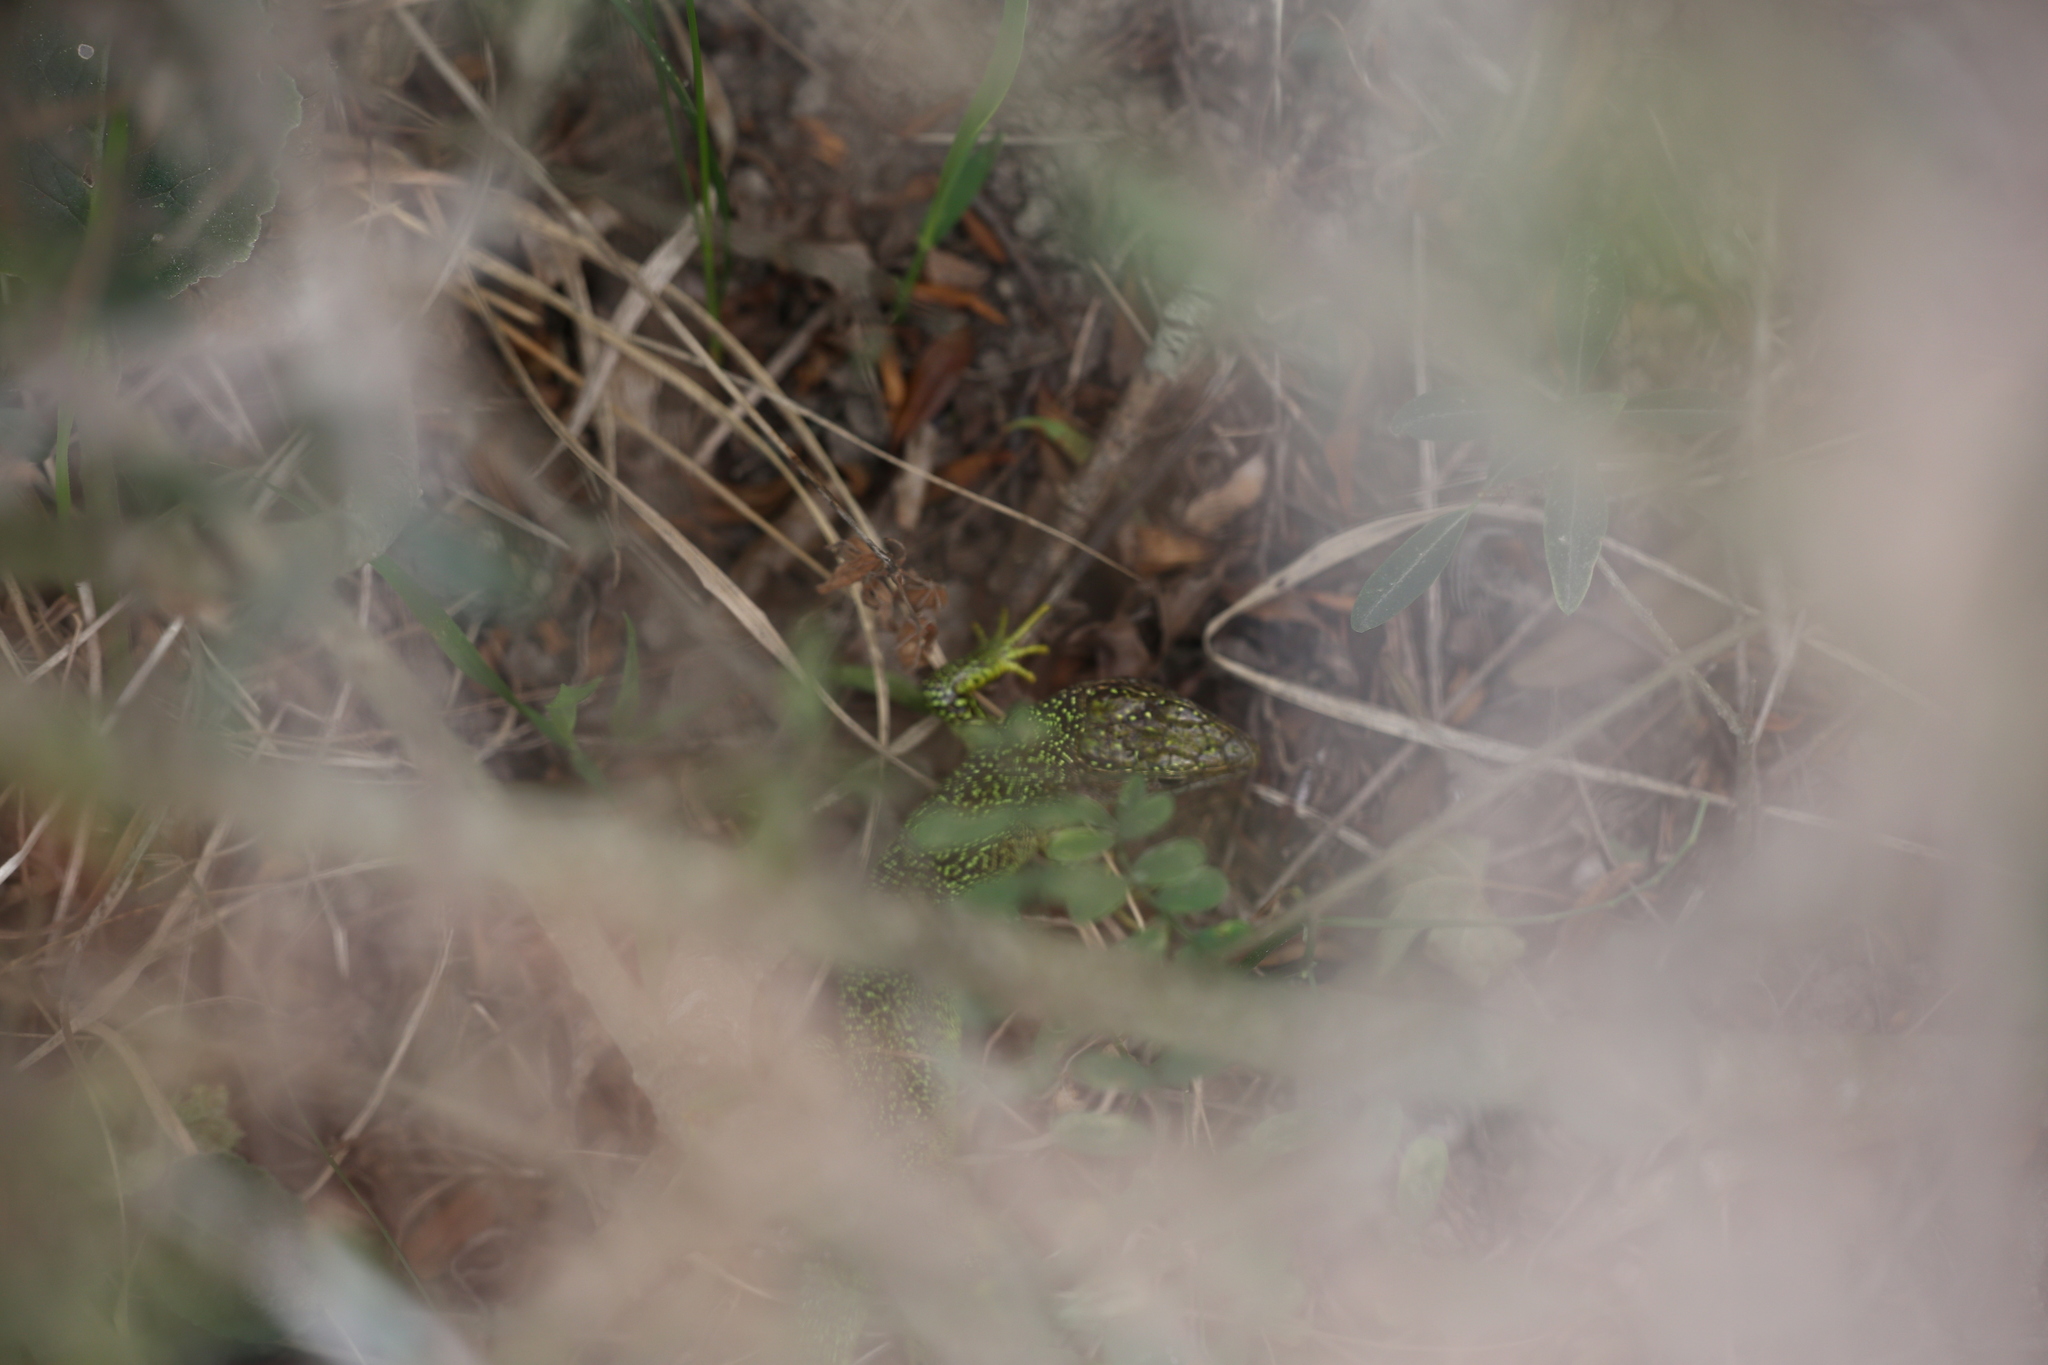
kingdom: Animalia
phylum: Chordata
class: Squamata
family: Lacertidae
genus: Lacerta
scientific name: Lacerta bilineata
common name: Western green lizard
